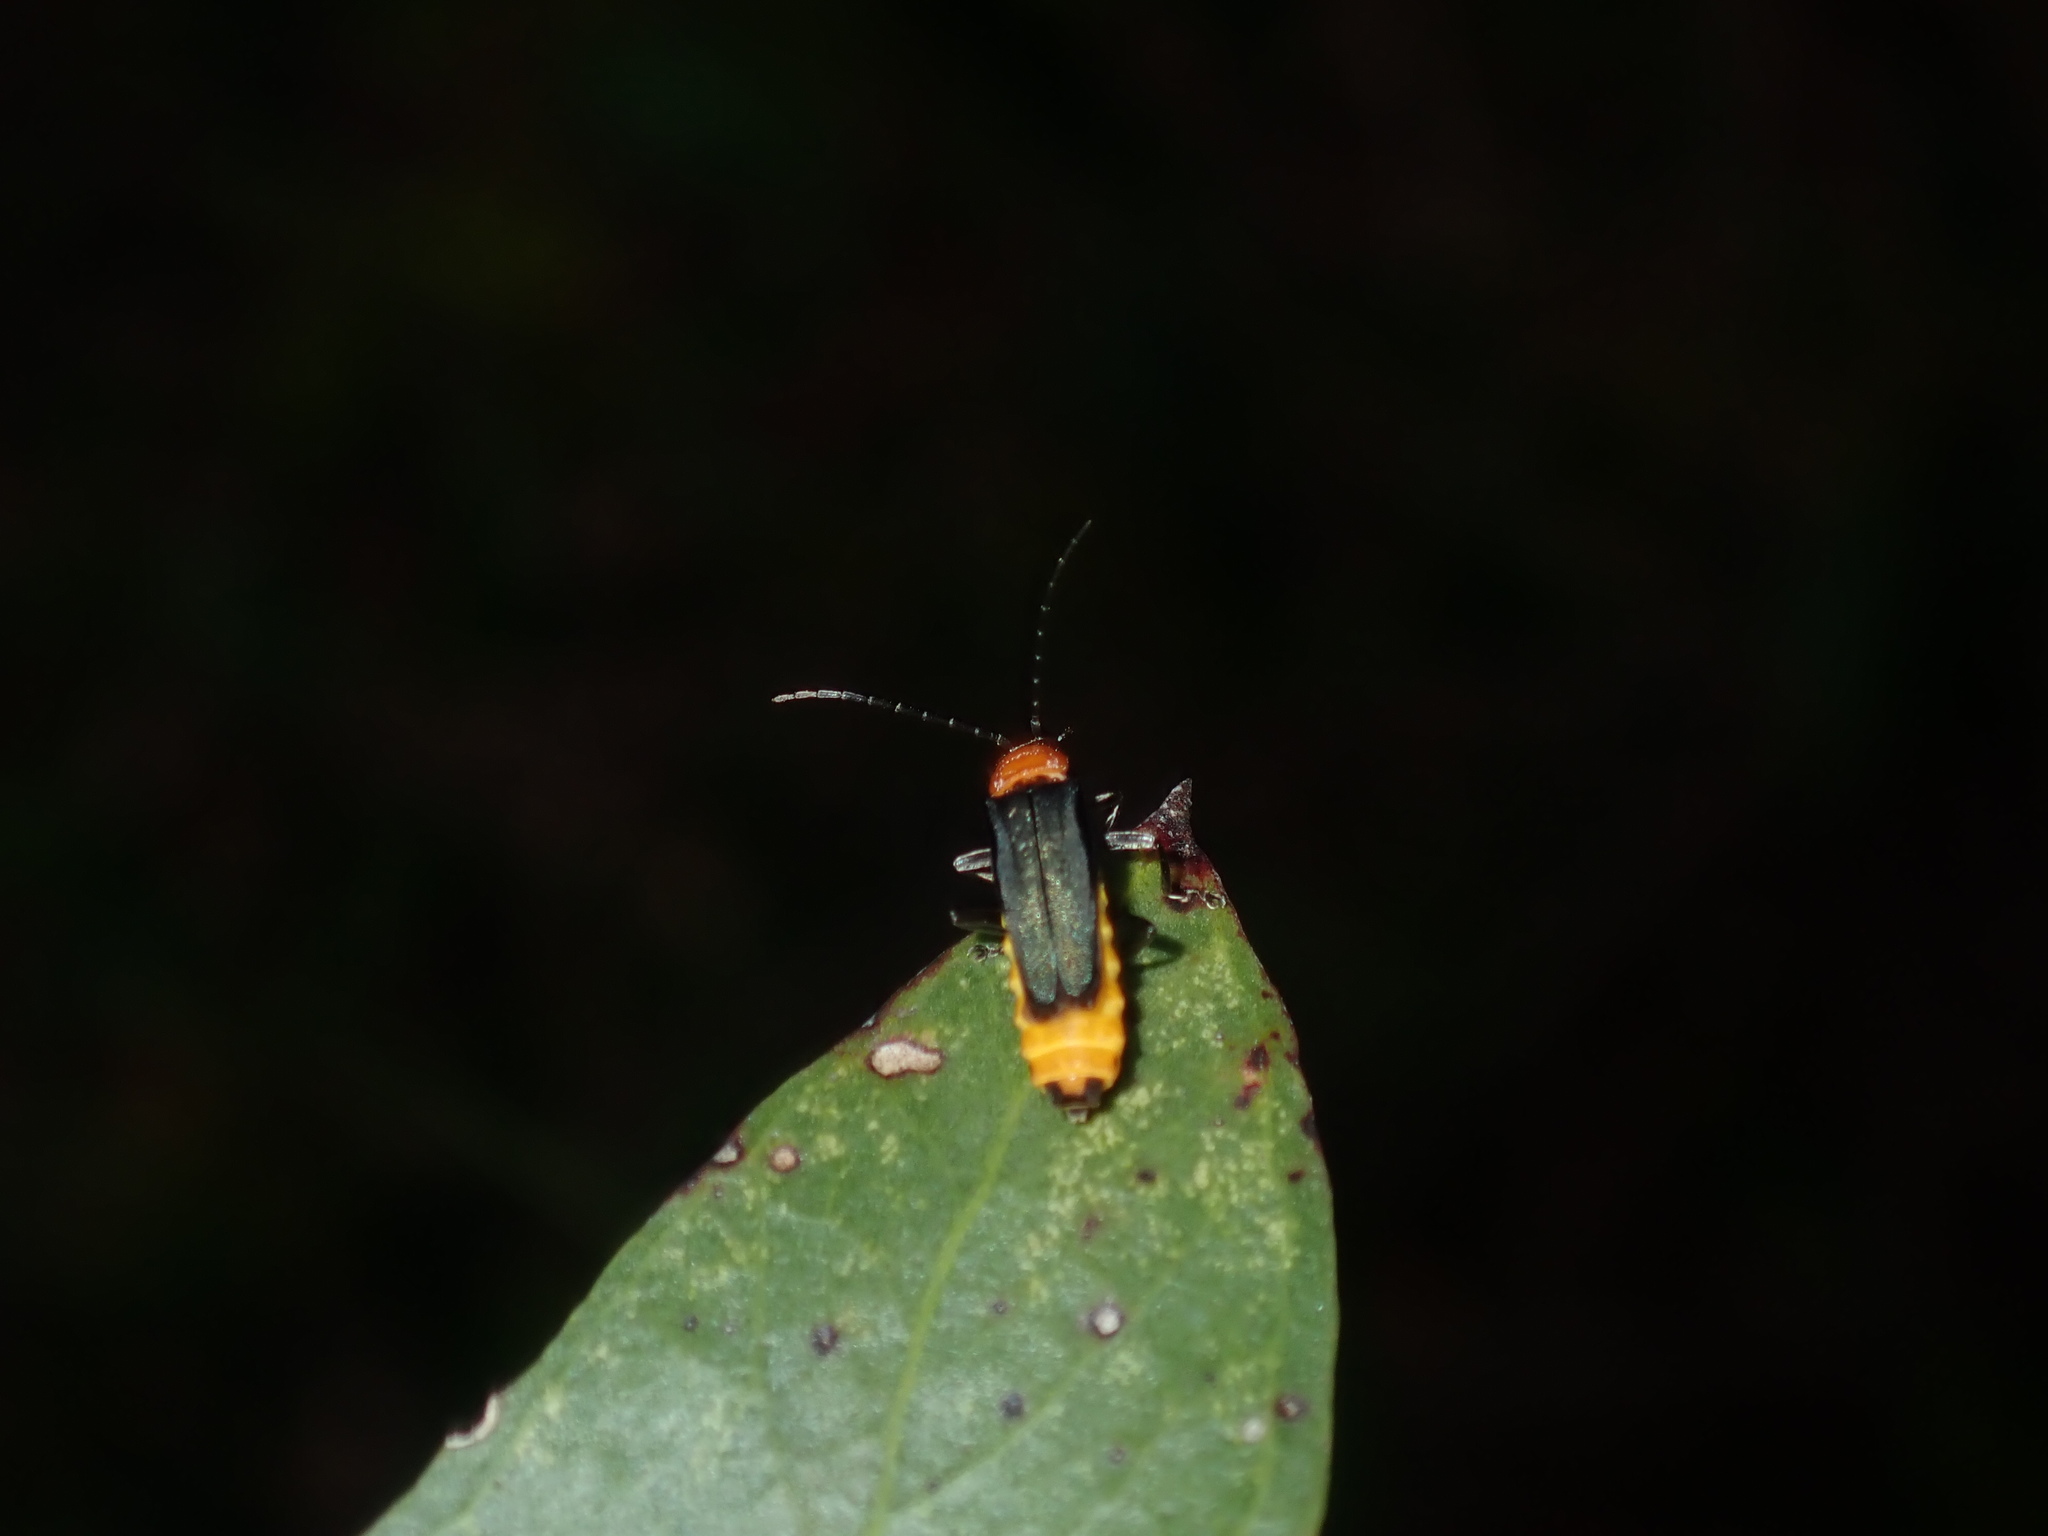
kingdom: Animalia
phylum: Arthropoda
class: Insecta
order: Coleoptera
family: Cantharidae
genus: Chauliognathus
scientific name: Chauliognathus
